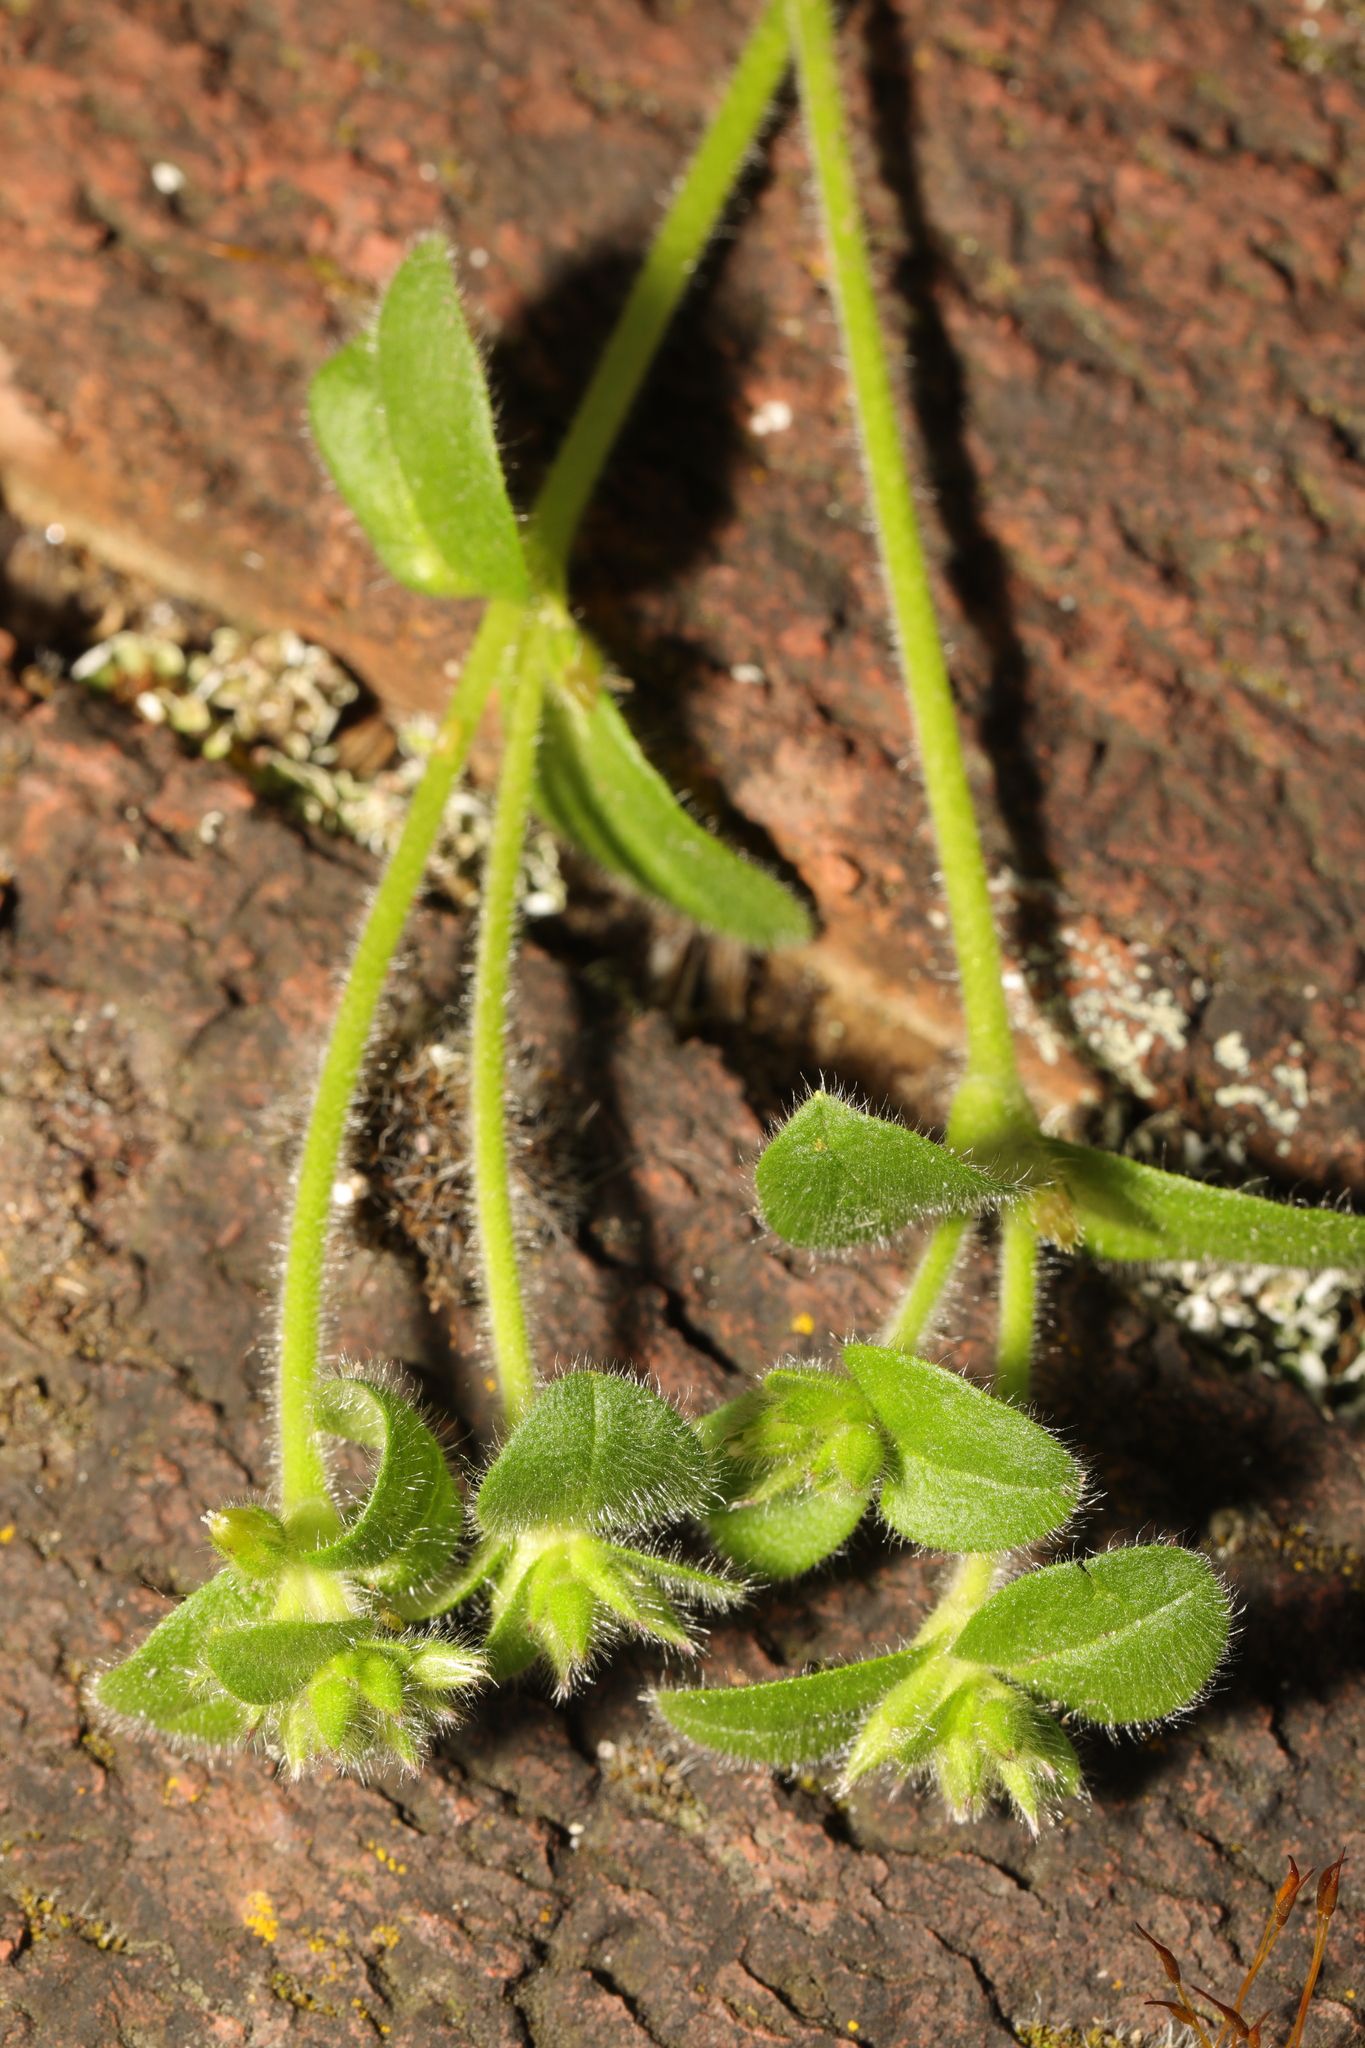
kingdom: Plantae
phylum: Tracheophyta
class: Magnoliopsida
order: Caryophyllales
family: Caryophyllaceae
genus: Cerastium
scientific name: Cerastium glomeratum
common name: Sticky chickweed
